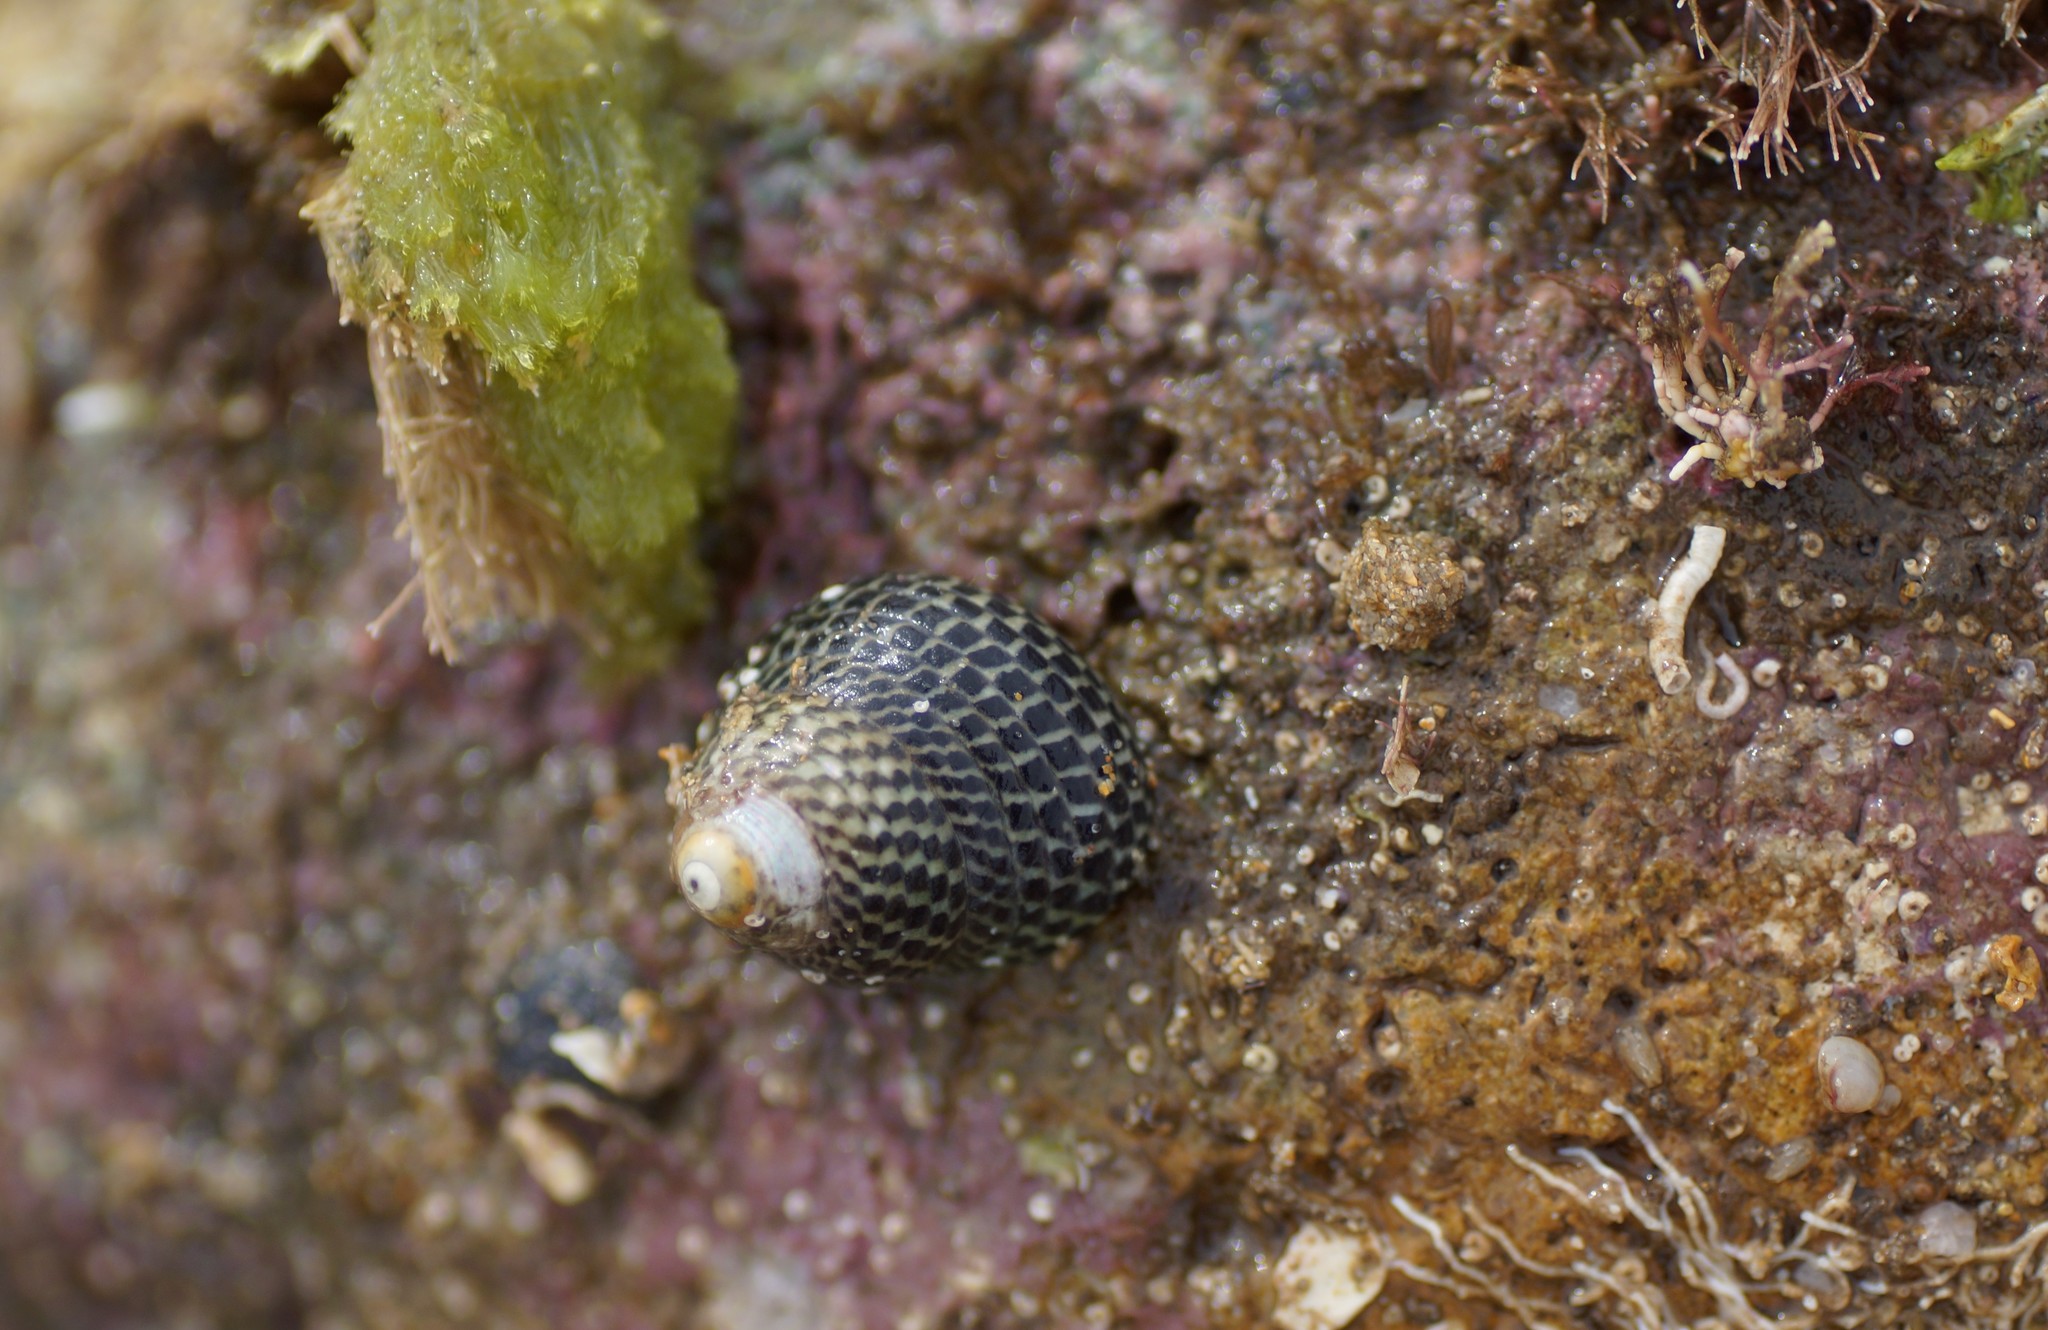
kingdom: Animalia
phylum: Mollusca
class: Gastropoda
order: Trochida
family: Trochidae
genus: Chlorodiloma
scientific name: Chlorodiloma adelaidae
